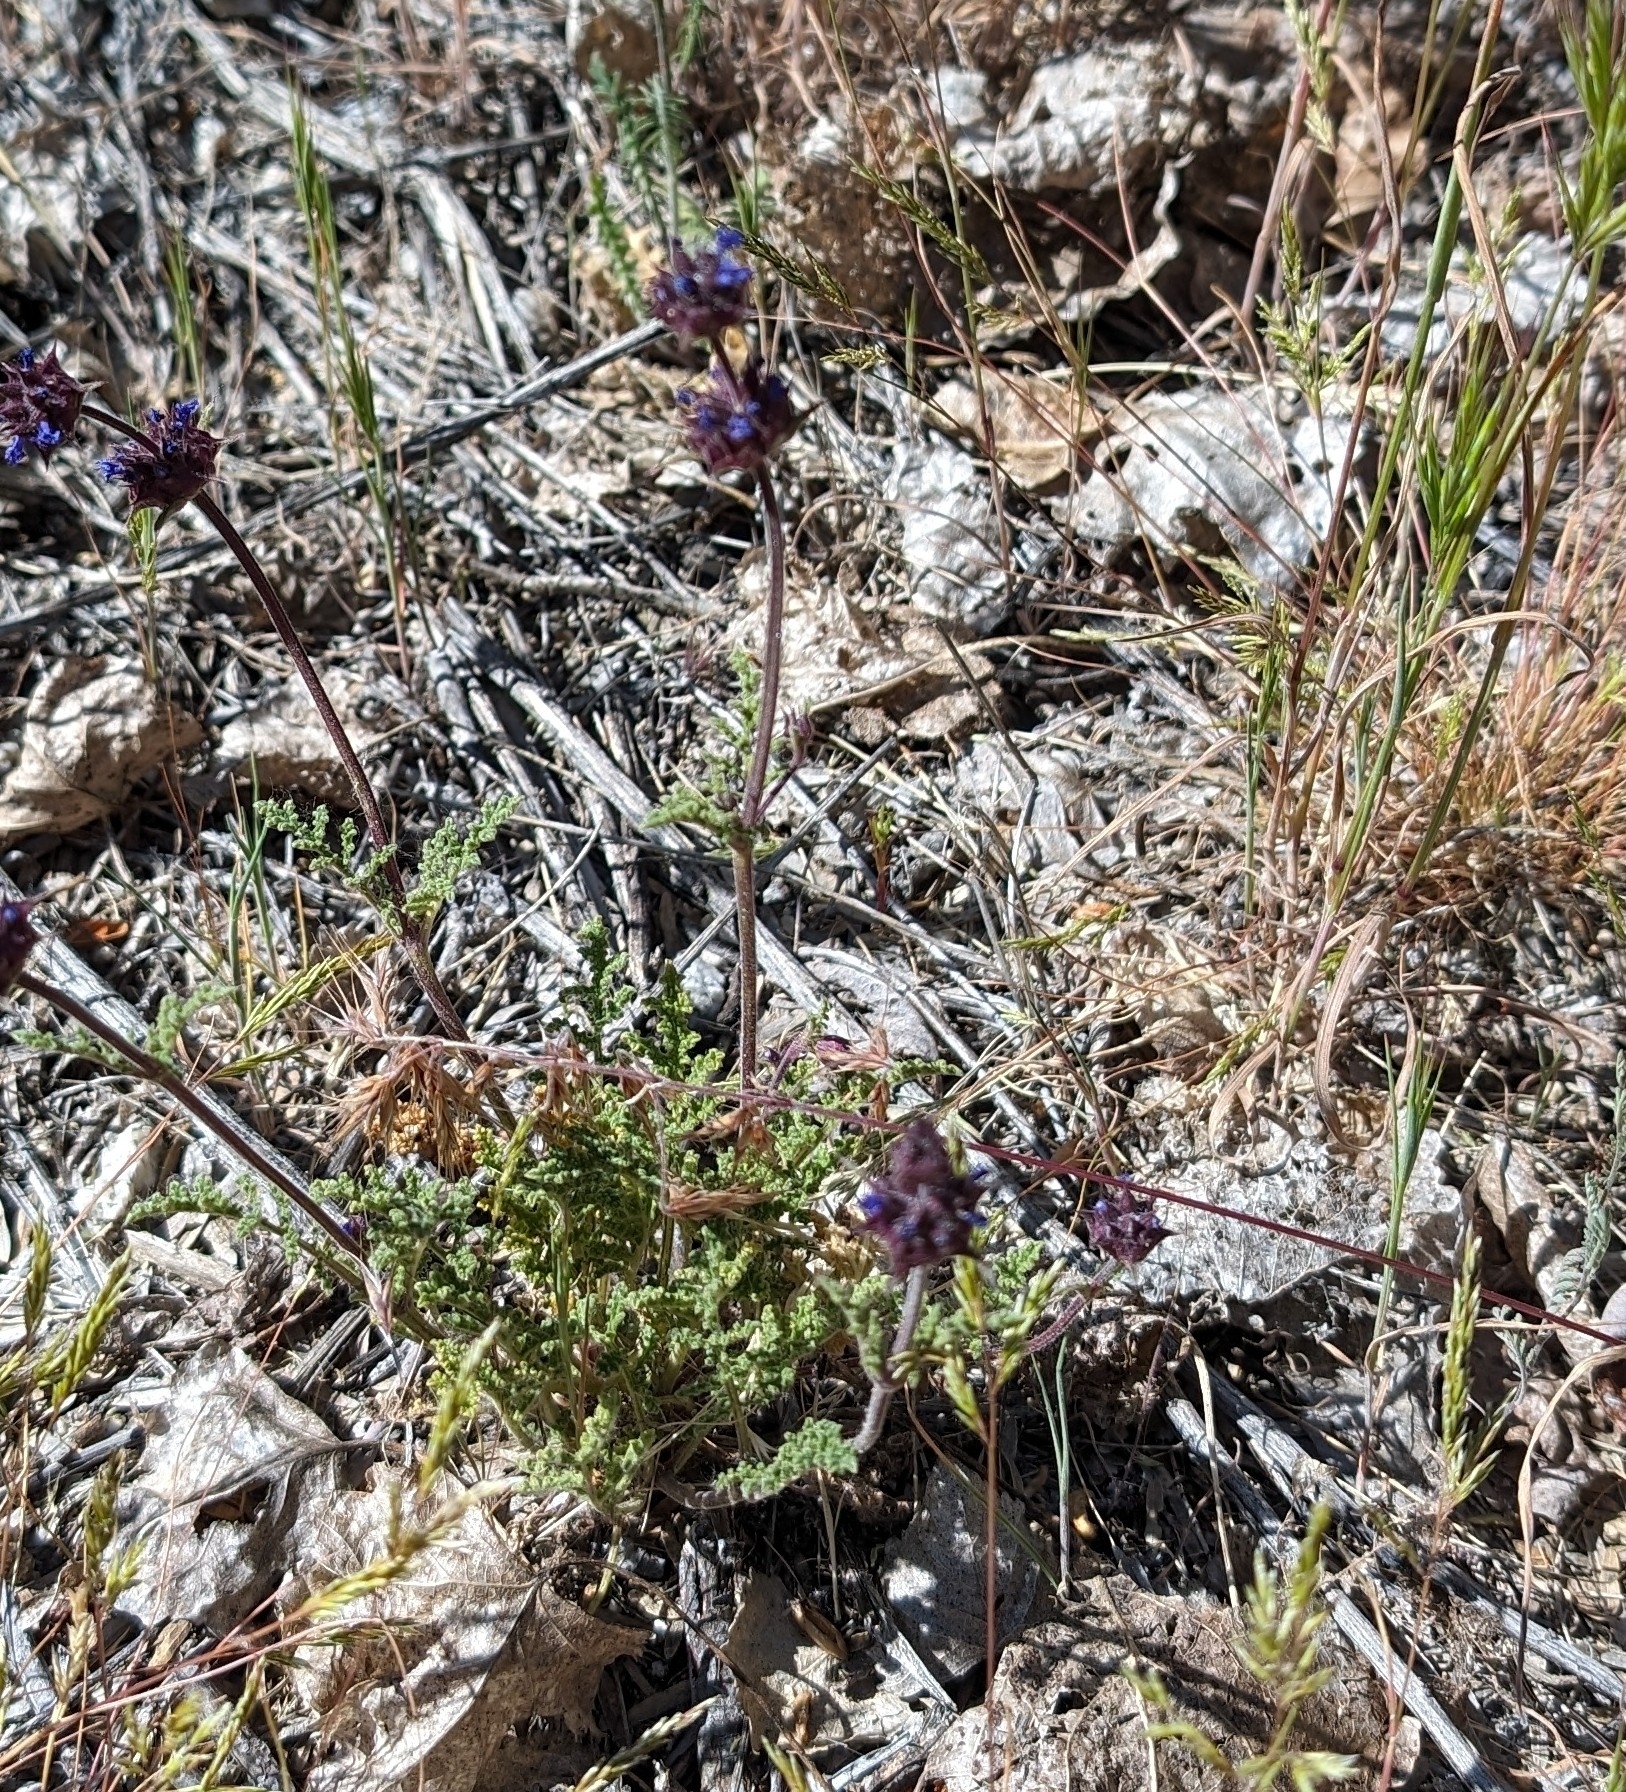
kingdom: Plantae
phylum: Tracheophyta
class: Magnoliopsida
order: Lamiales
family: Lamiaceae
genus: Salvia
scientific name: Salvia columbariae
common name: Chia
